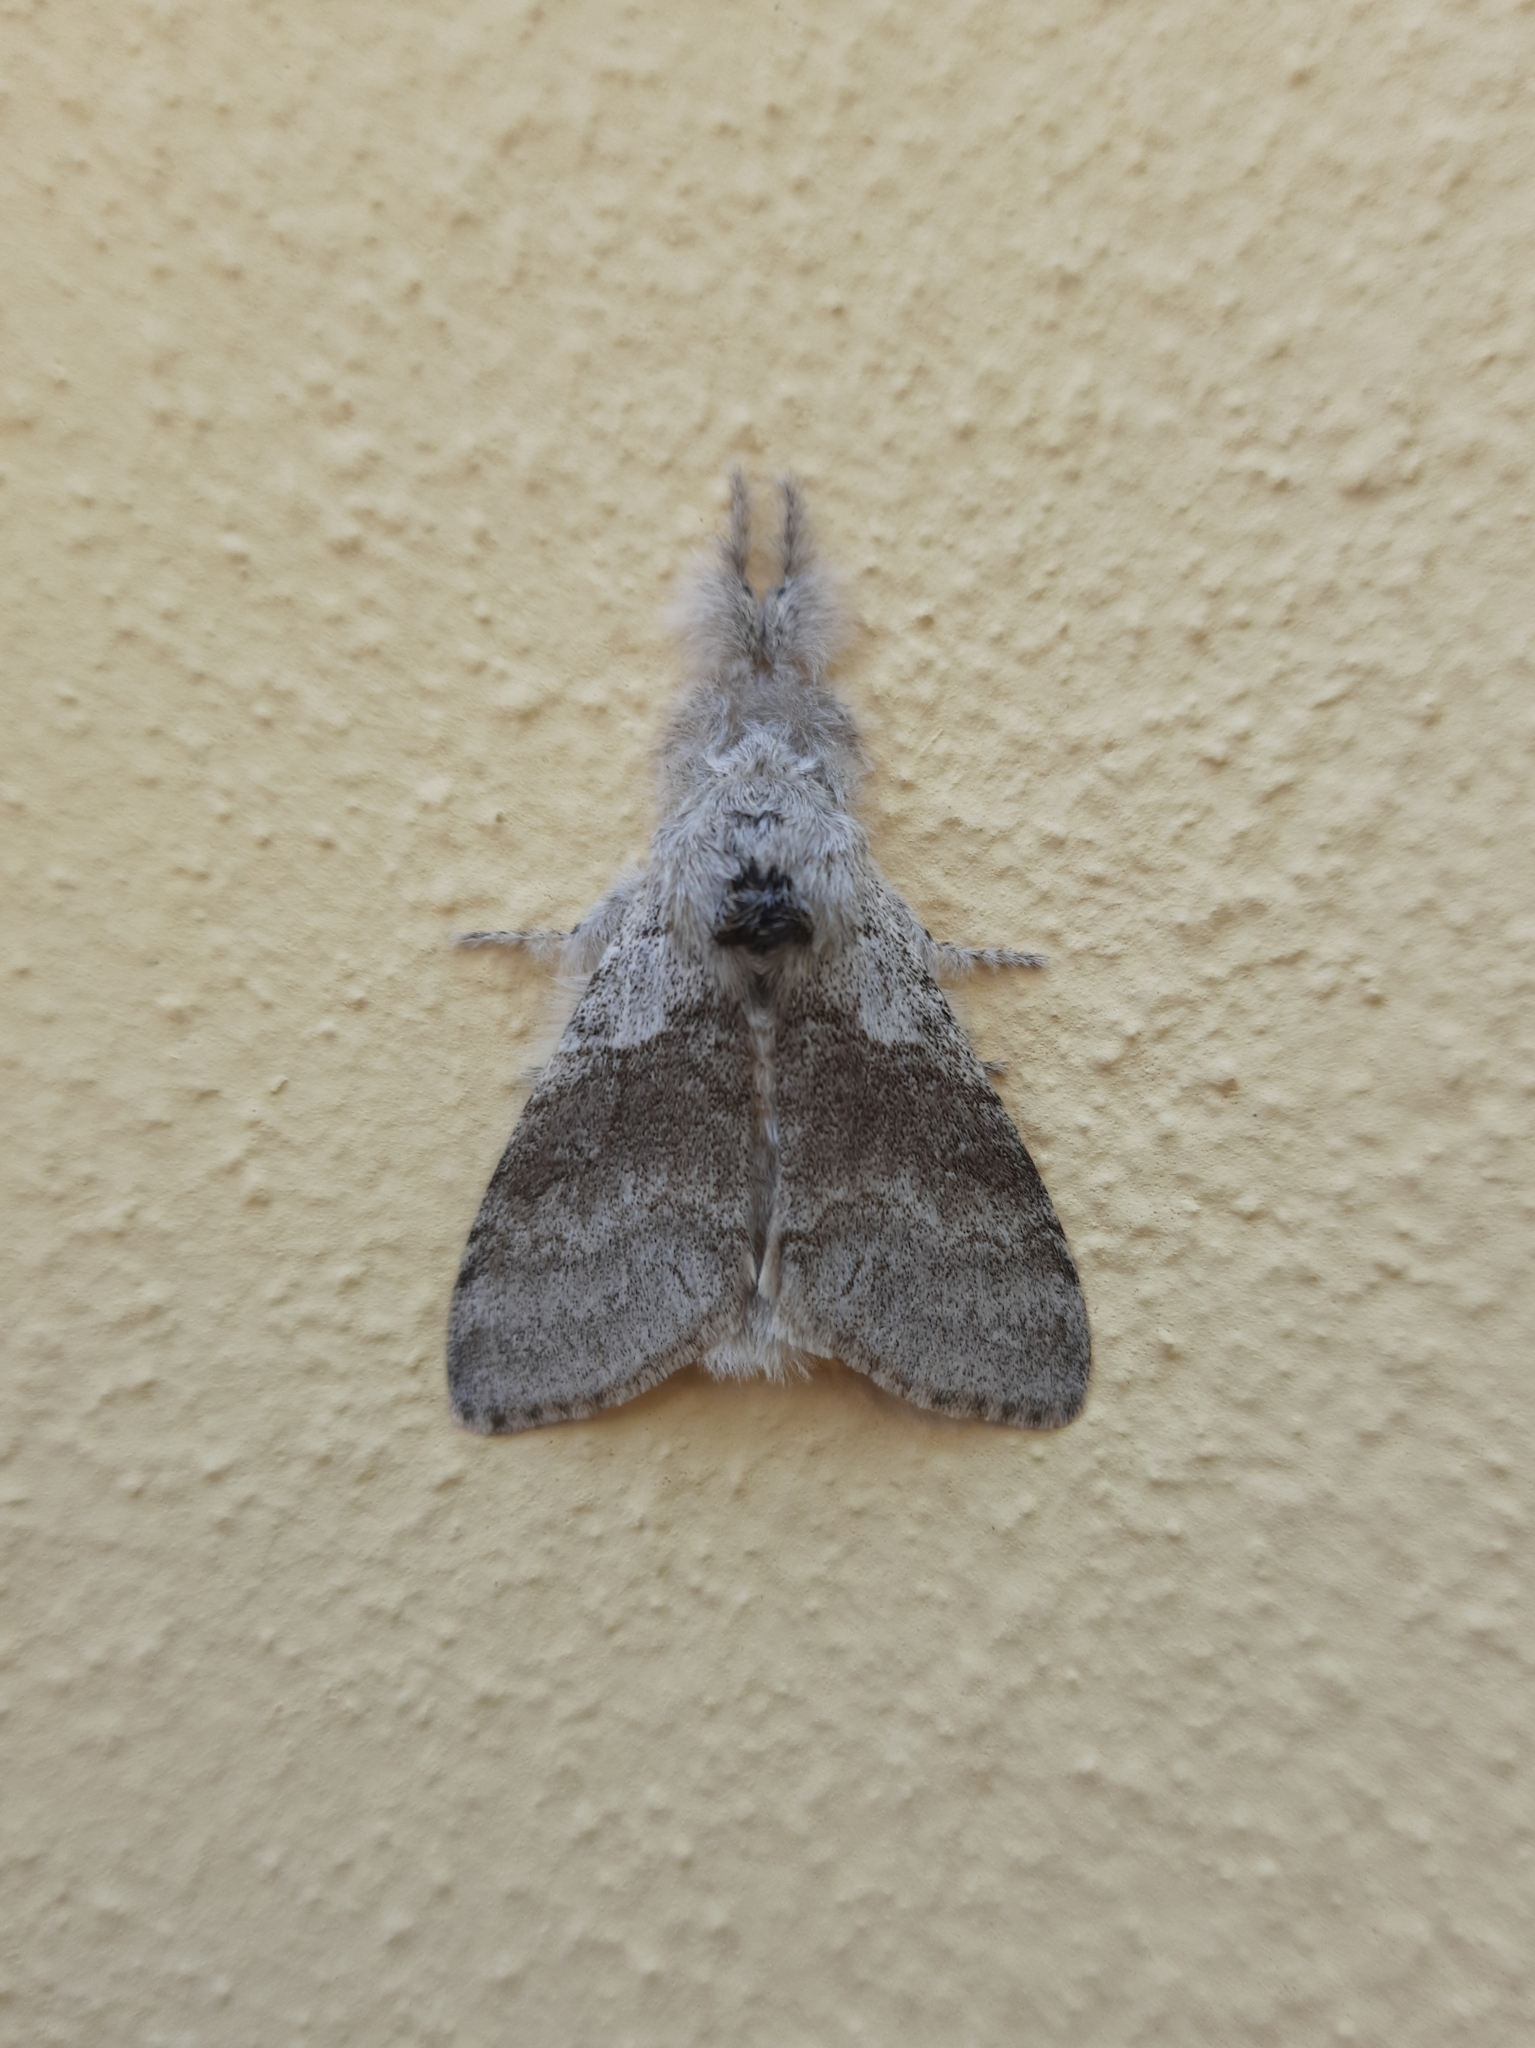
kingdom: Animalia
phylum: Arthropoda
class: Insecta
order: Lepidoptera
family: Erebidae
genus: Calliteara
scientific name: Calliteara pudibunda
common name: Pale tussock
